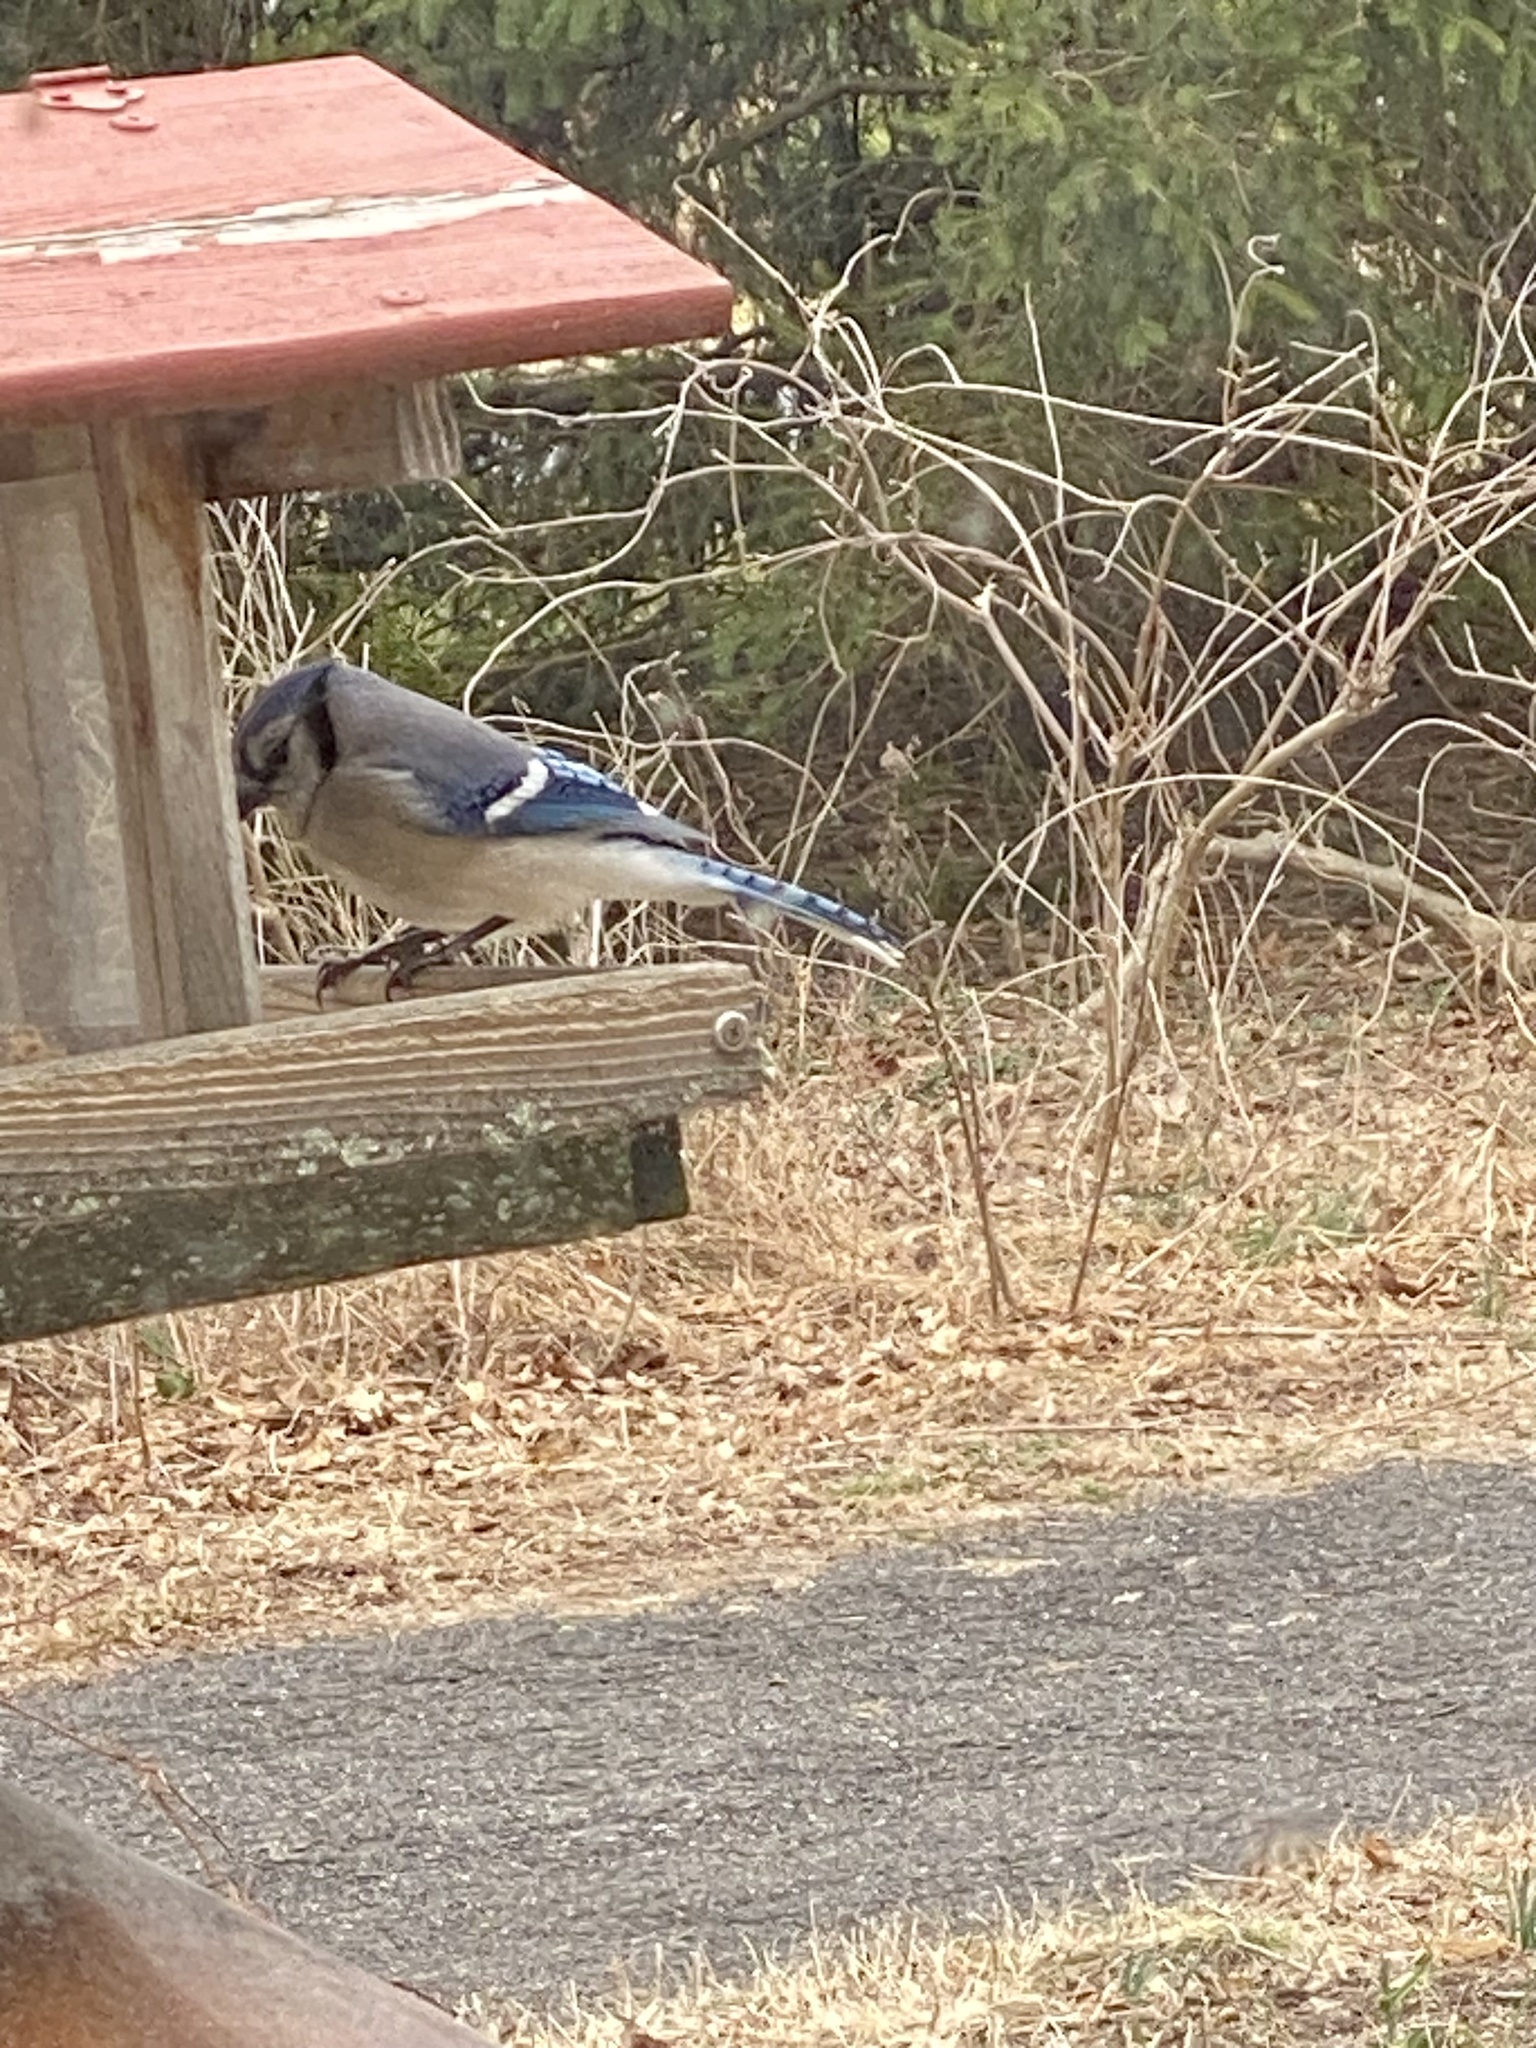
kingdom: Animalia
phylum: Chordata
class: Aves
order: Passeriformes
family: Corvidae
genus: Cyanocitta
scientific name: Cyanocitta cristata
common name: Blue jay
